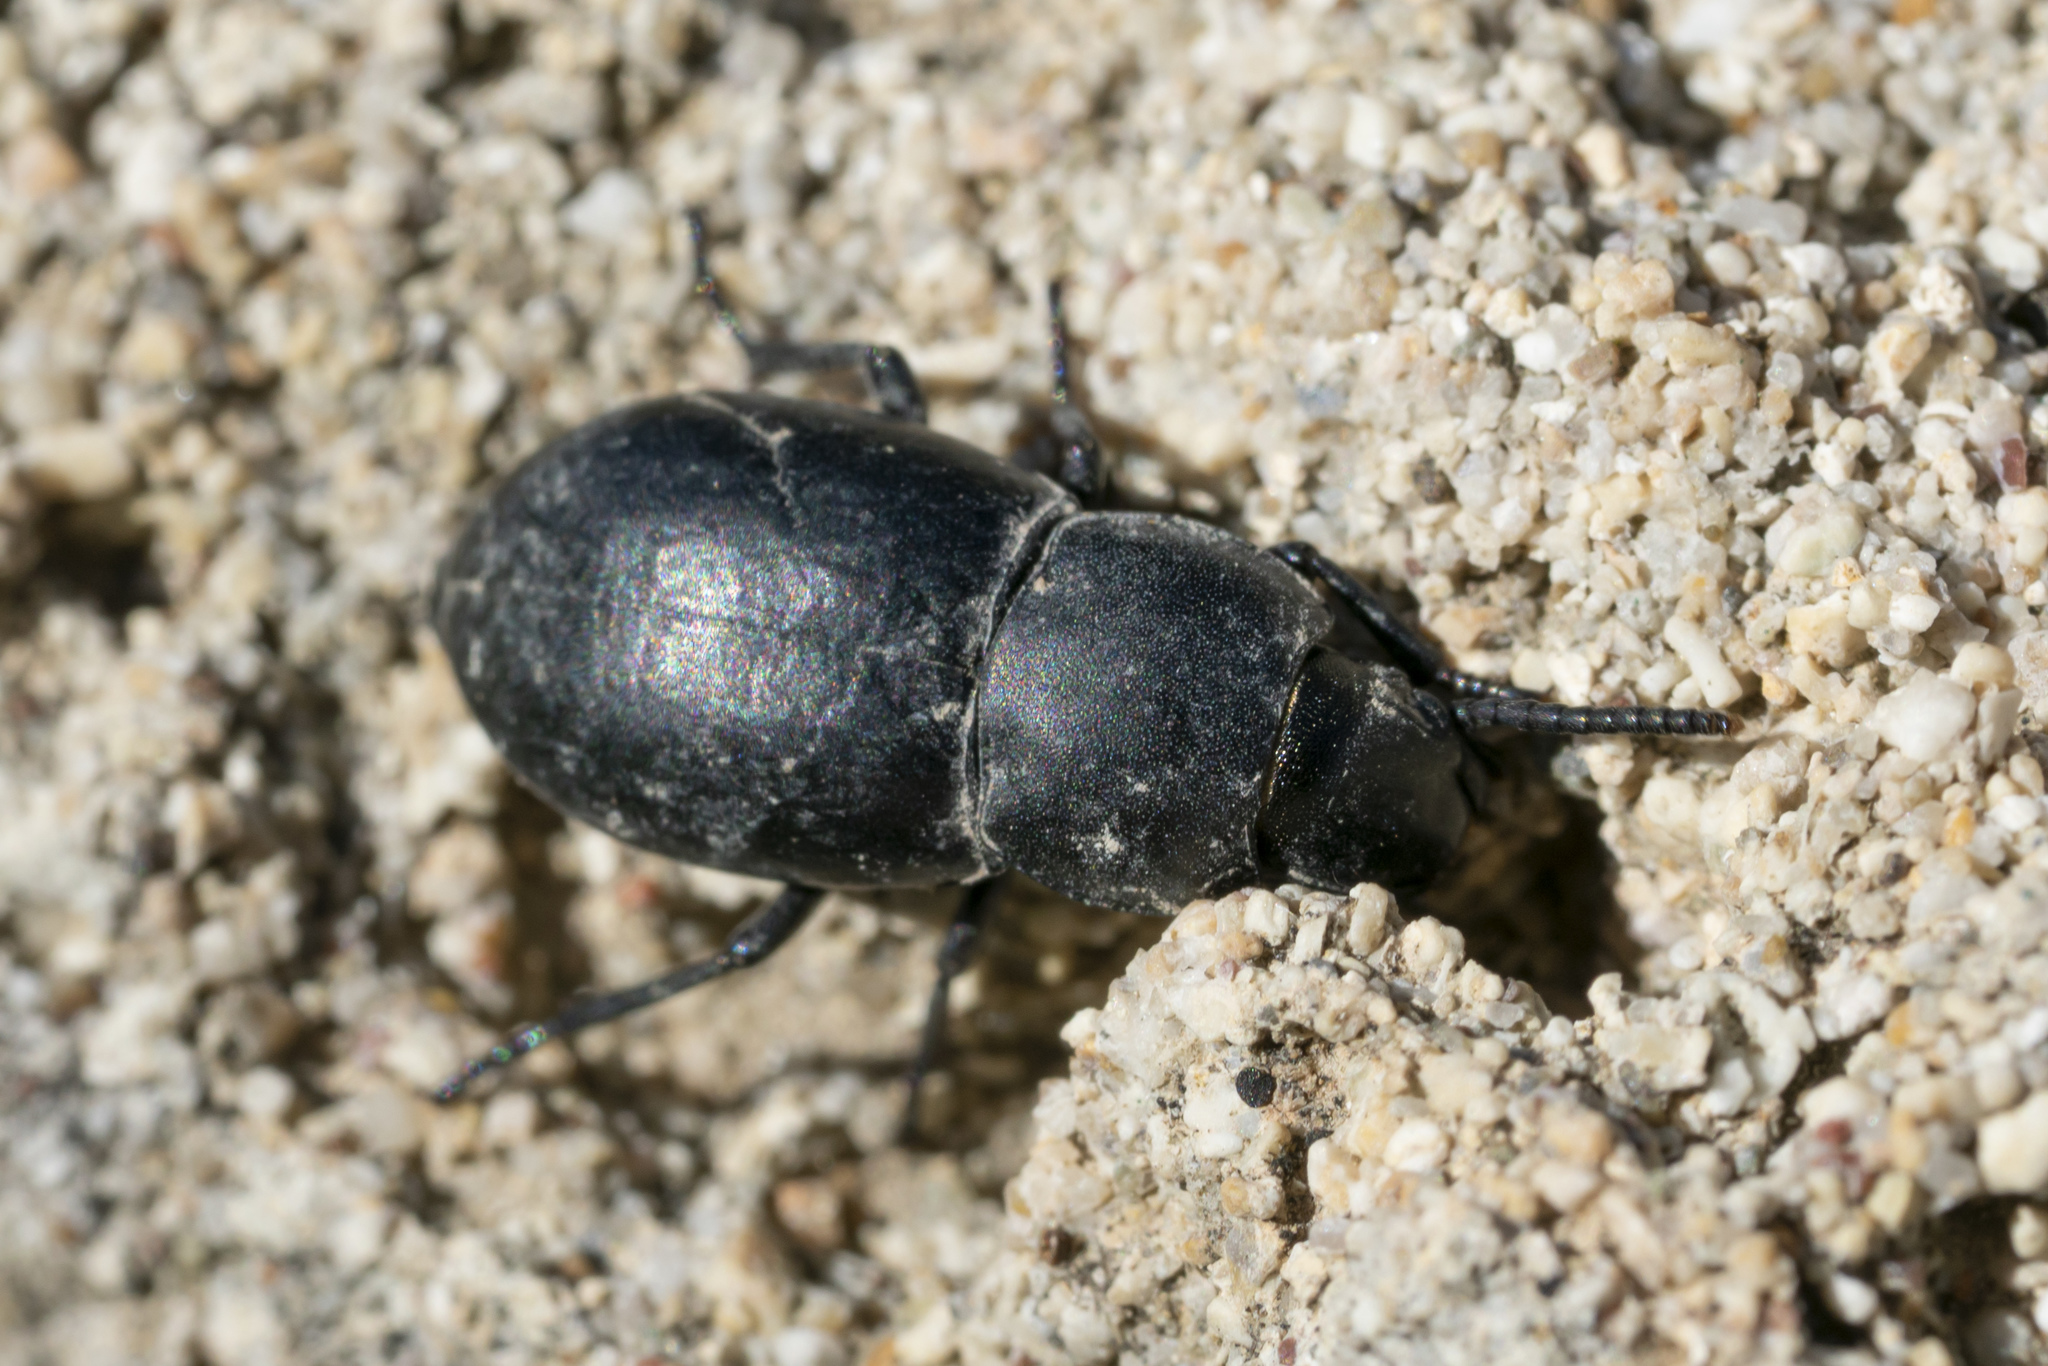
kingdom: Animalia
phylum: Arthropoda
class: Insecta
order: Coleoptera
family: Tenebrionidae
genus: Dailognatha
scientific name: Dailognatha quadricollis
